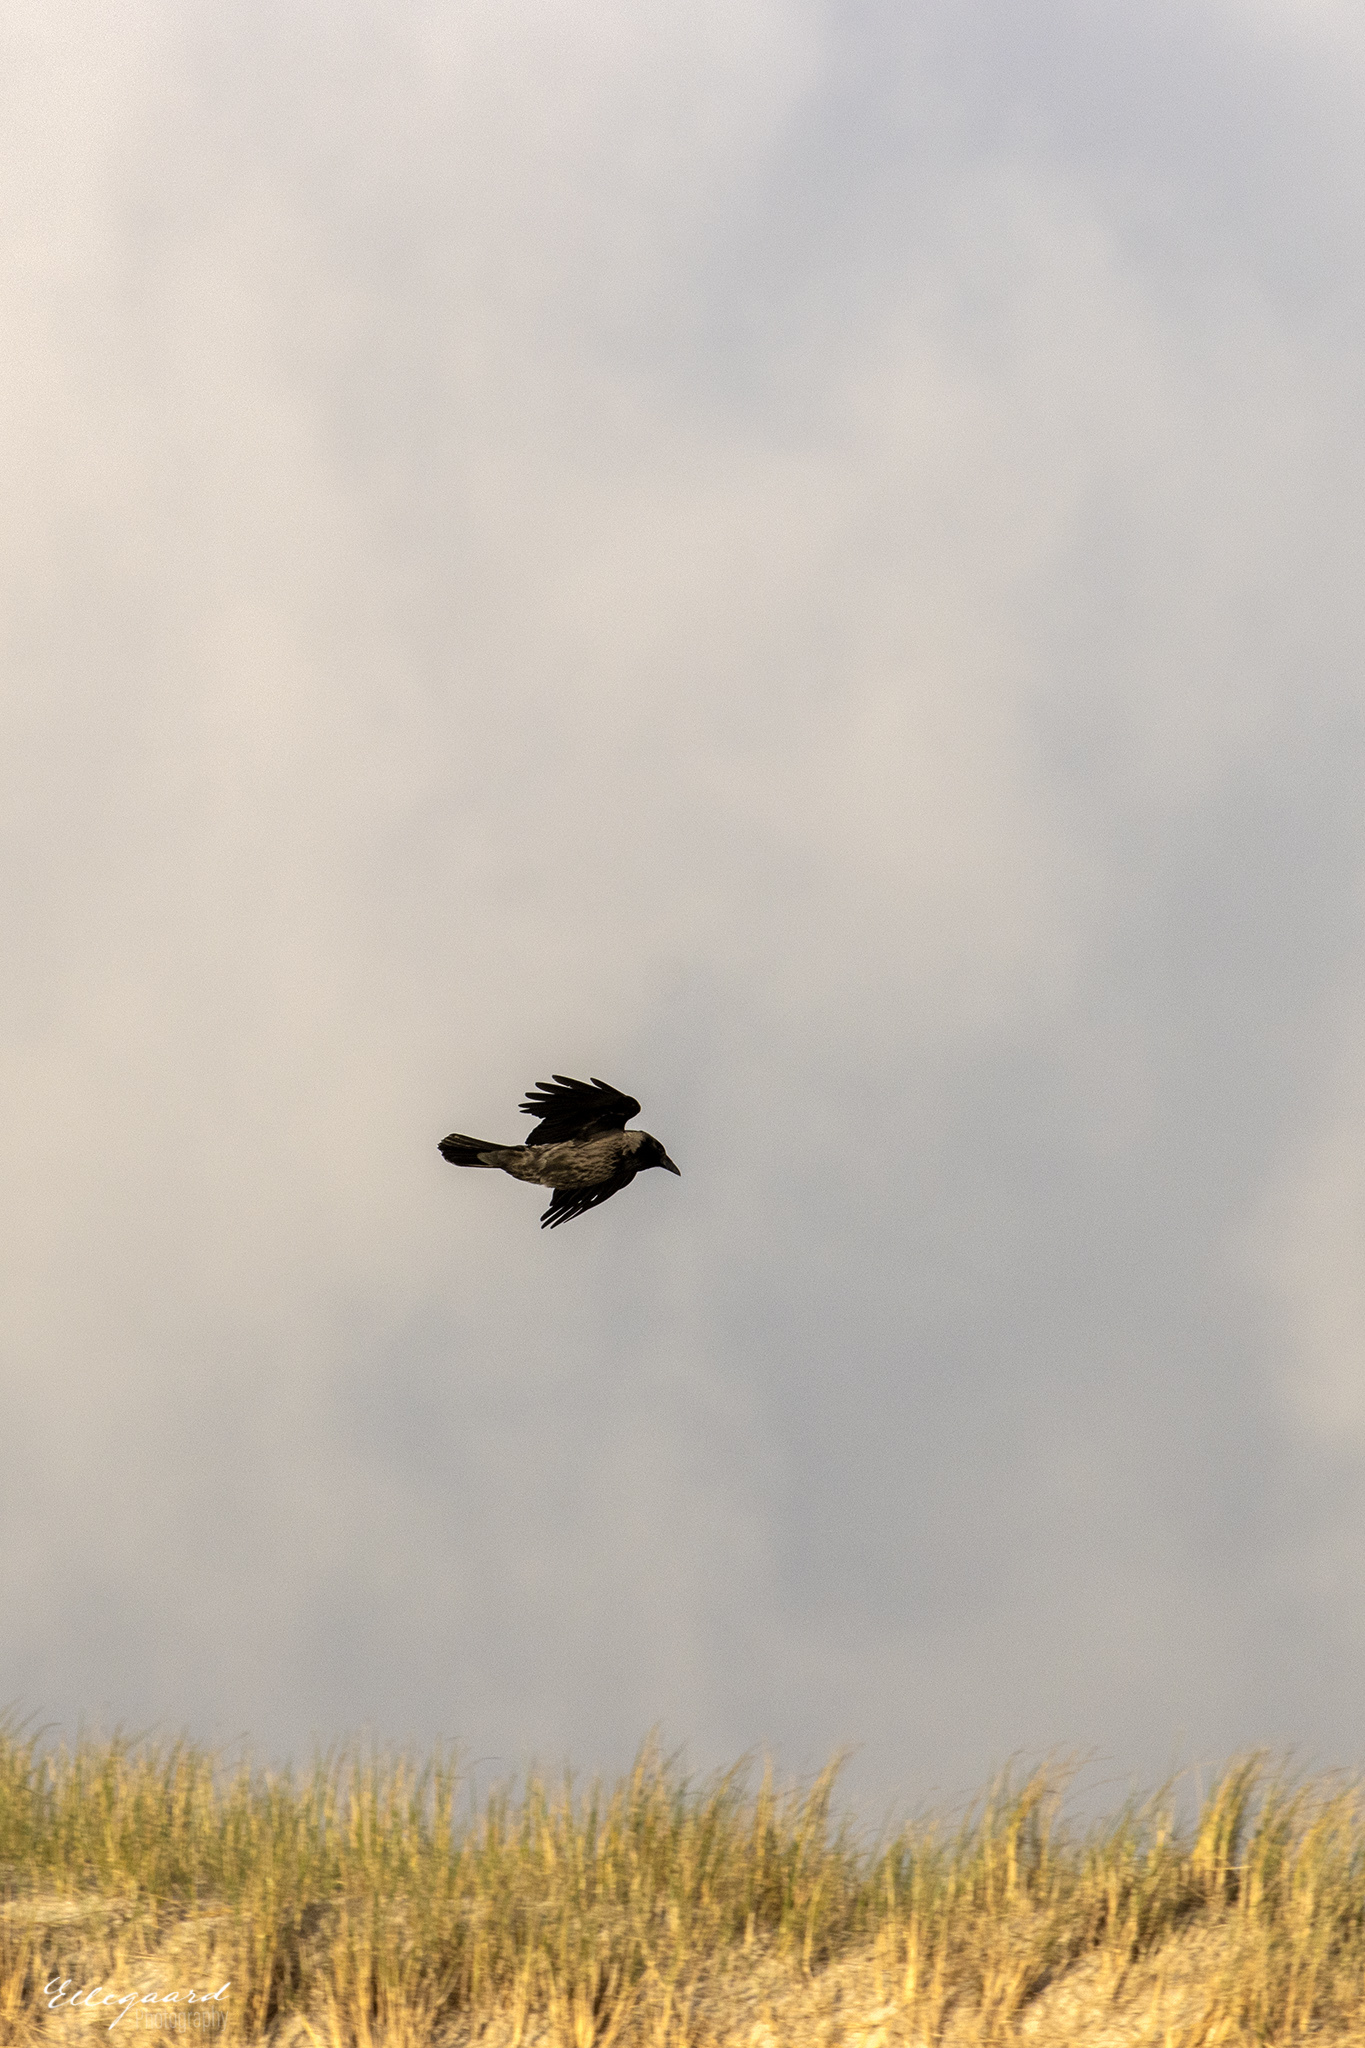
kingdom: Animalia
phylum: Chordata
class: Aves
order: Passeriformes
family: Corvidae
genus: Corvus
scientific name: Corvus cornix
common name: Hooded crow
